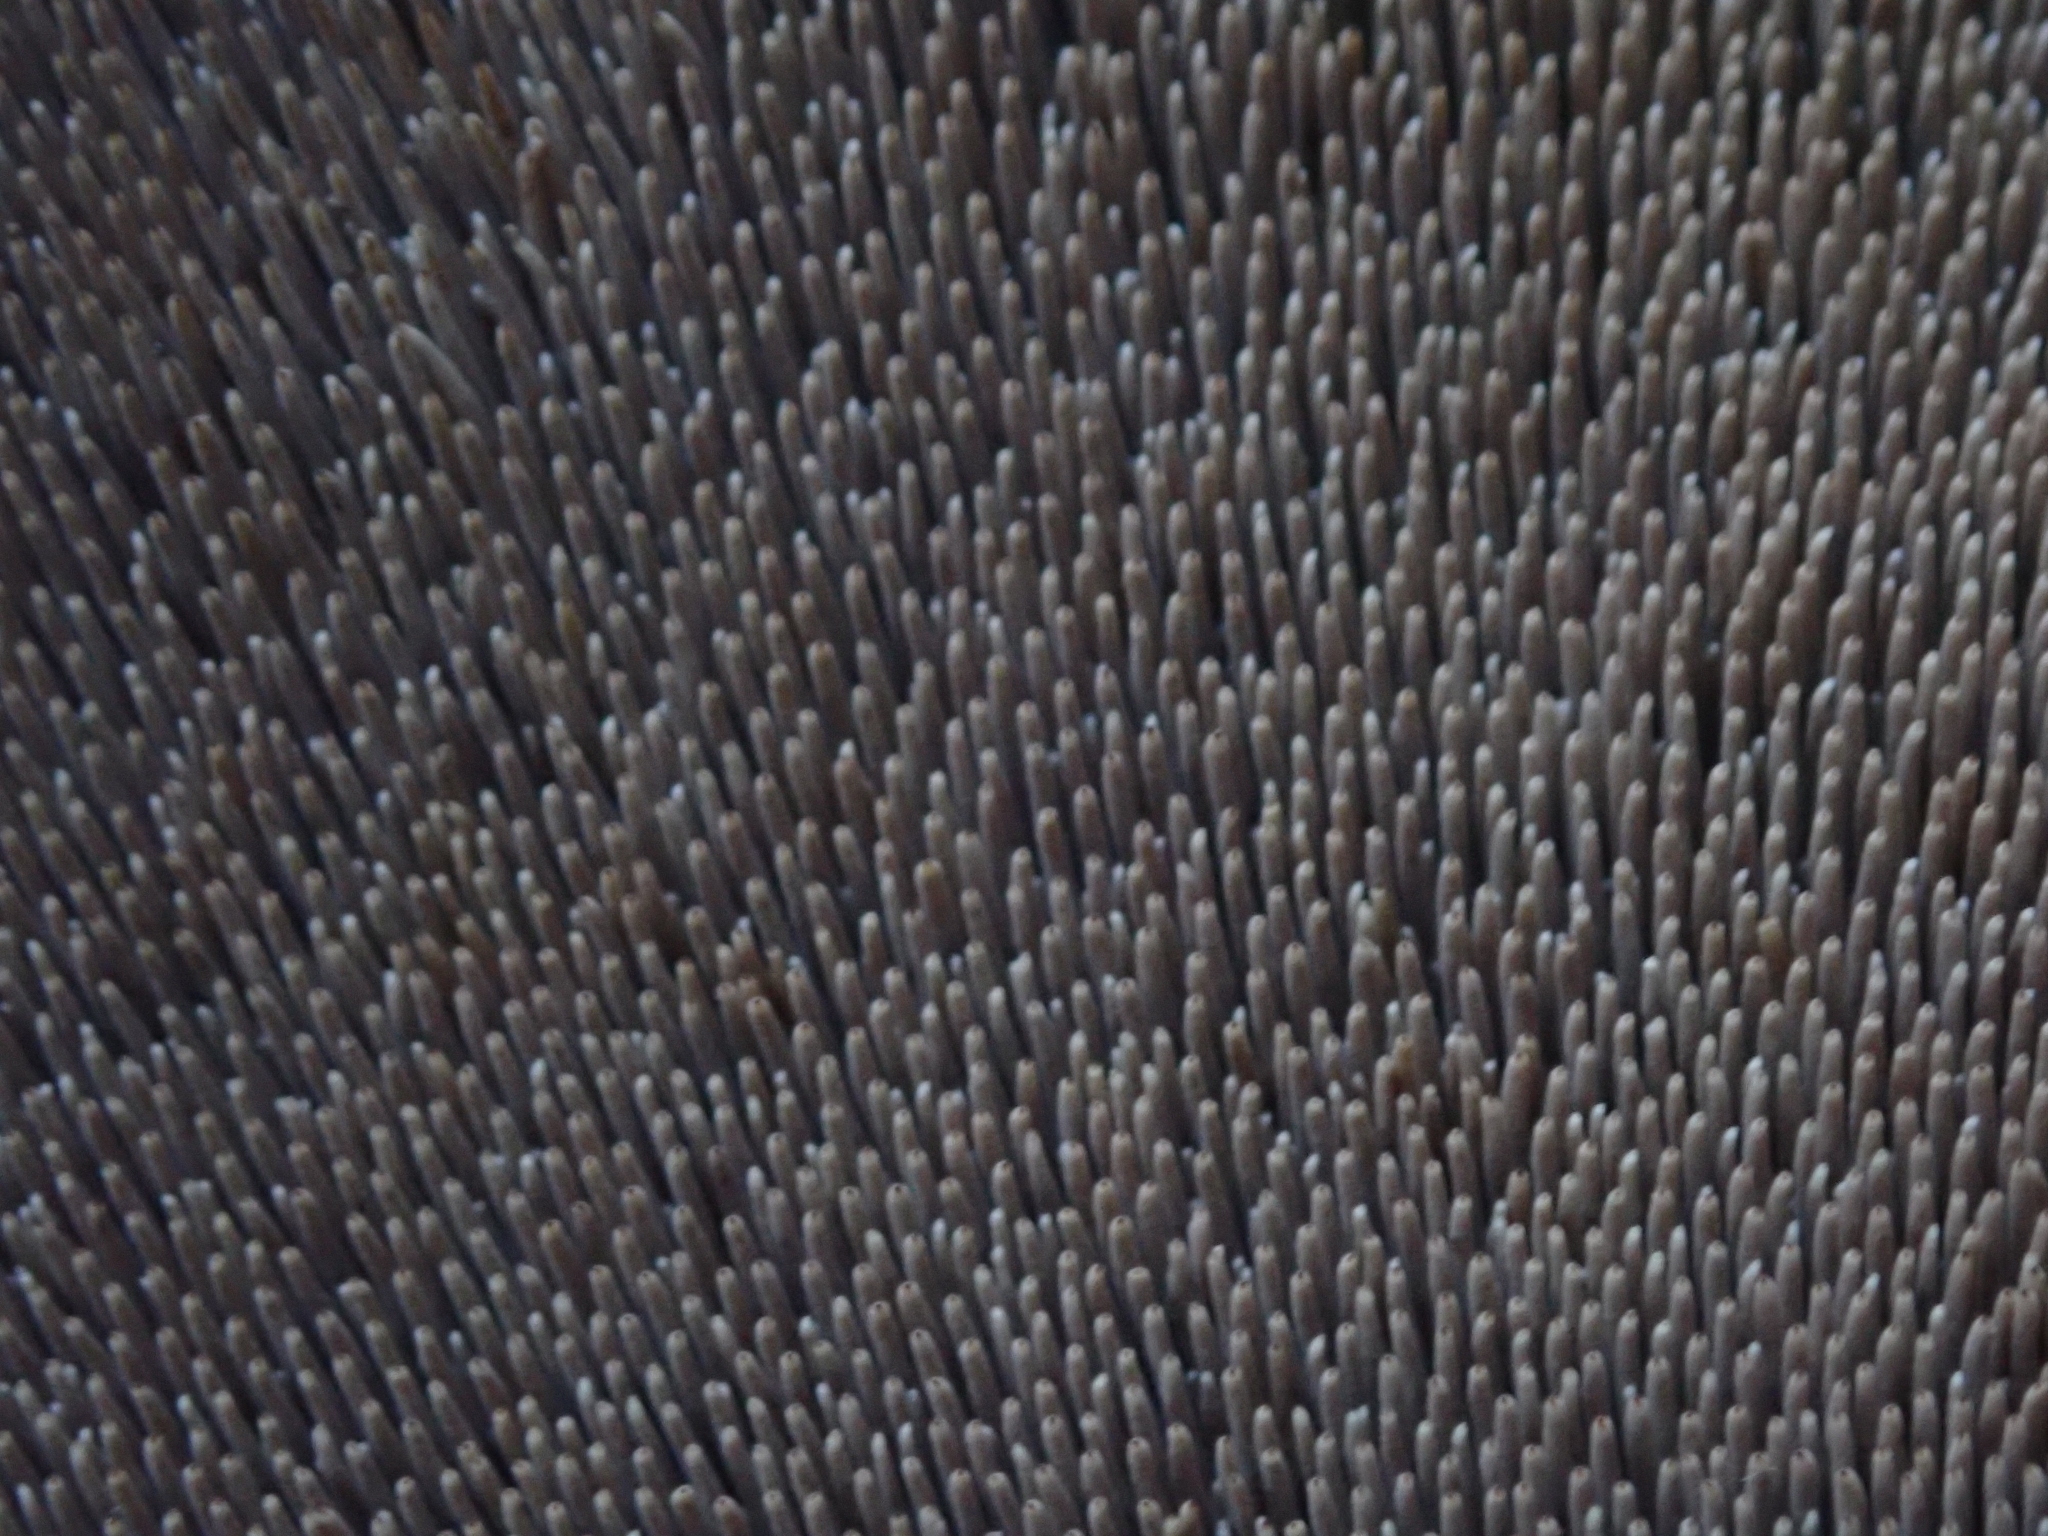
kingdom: Fungi
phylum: Basidiomycota
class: Agaricomycetes
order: Thelephorales
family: Bankeraceae
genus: Sarcodon
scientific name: Sarcodon imbricatus
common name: Shingled hedgehog
